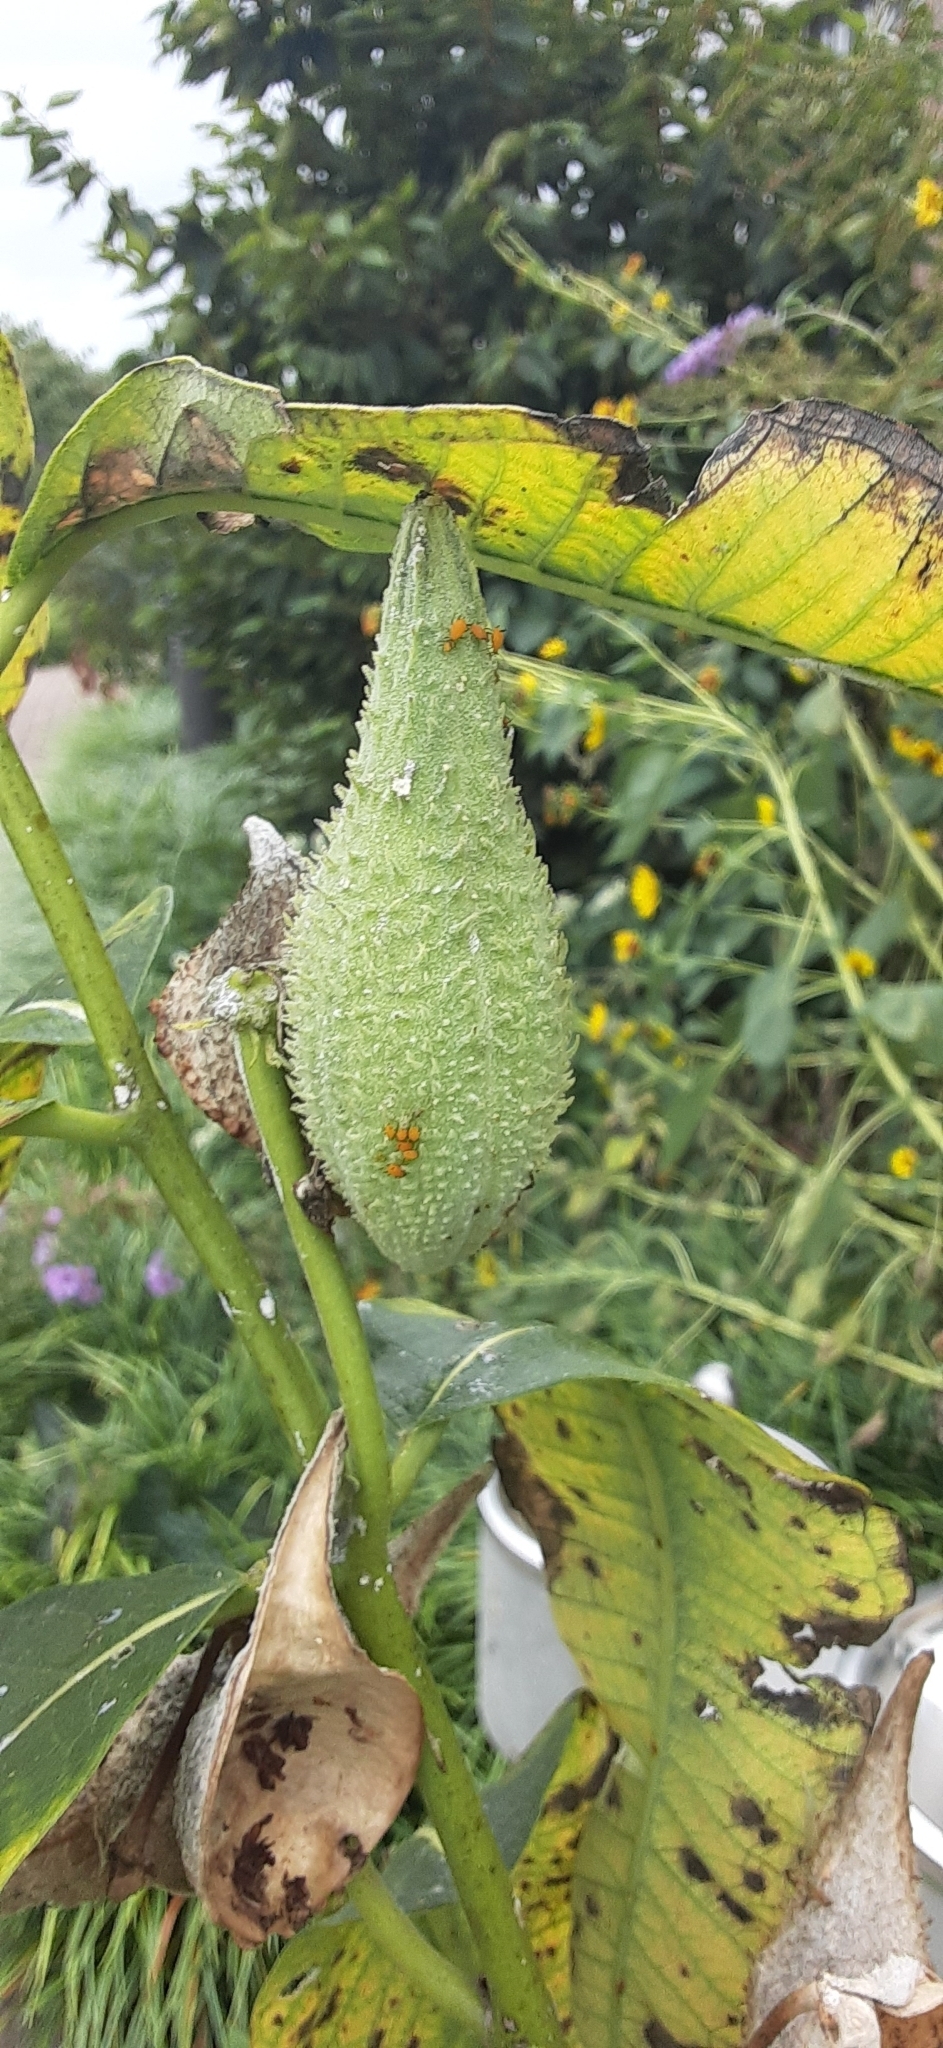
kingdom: Animalia
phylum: Arthropoda
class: Insecta
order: Hemiptera
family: Aphididae
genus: Aphis
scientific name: Aphis nerii
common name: Oleander aphid
